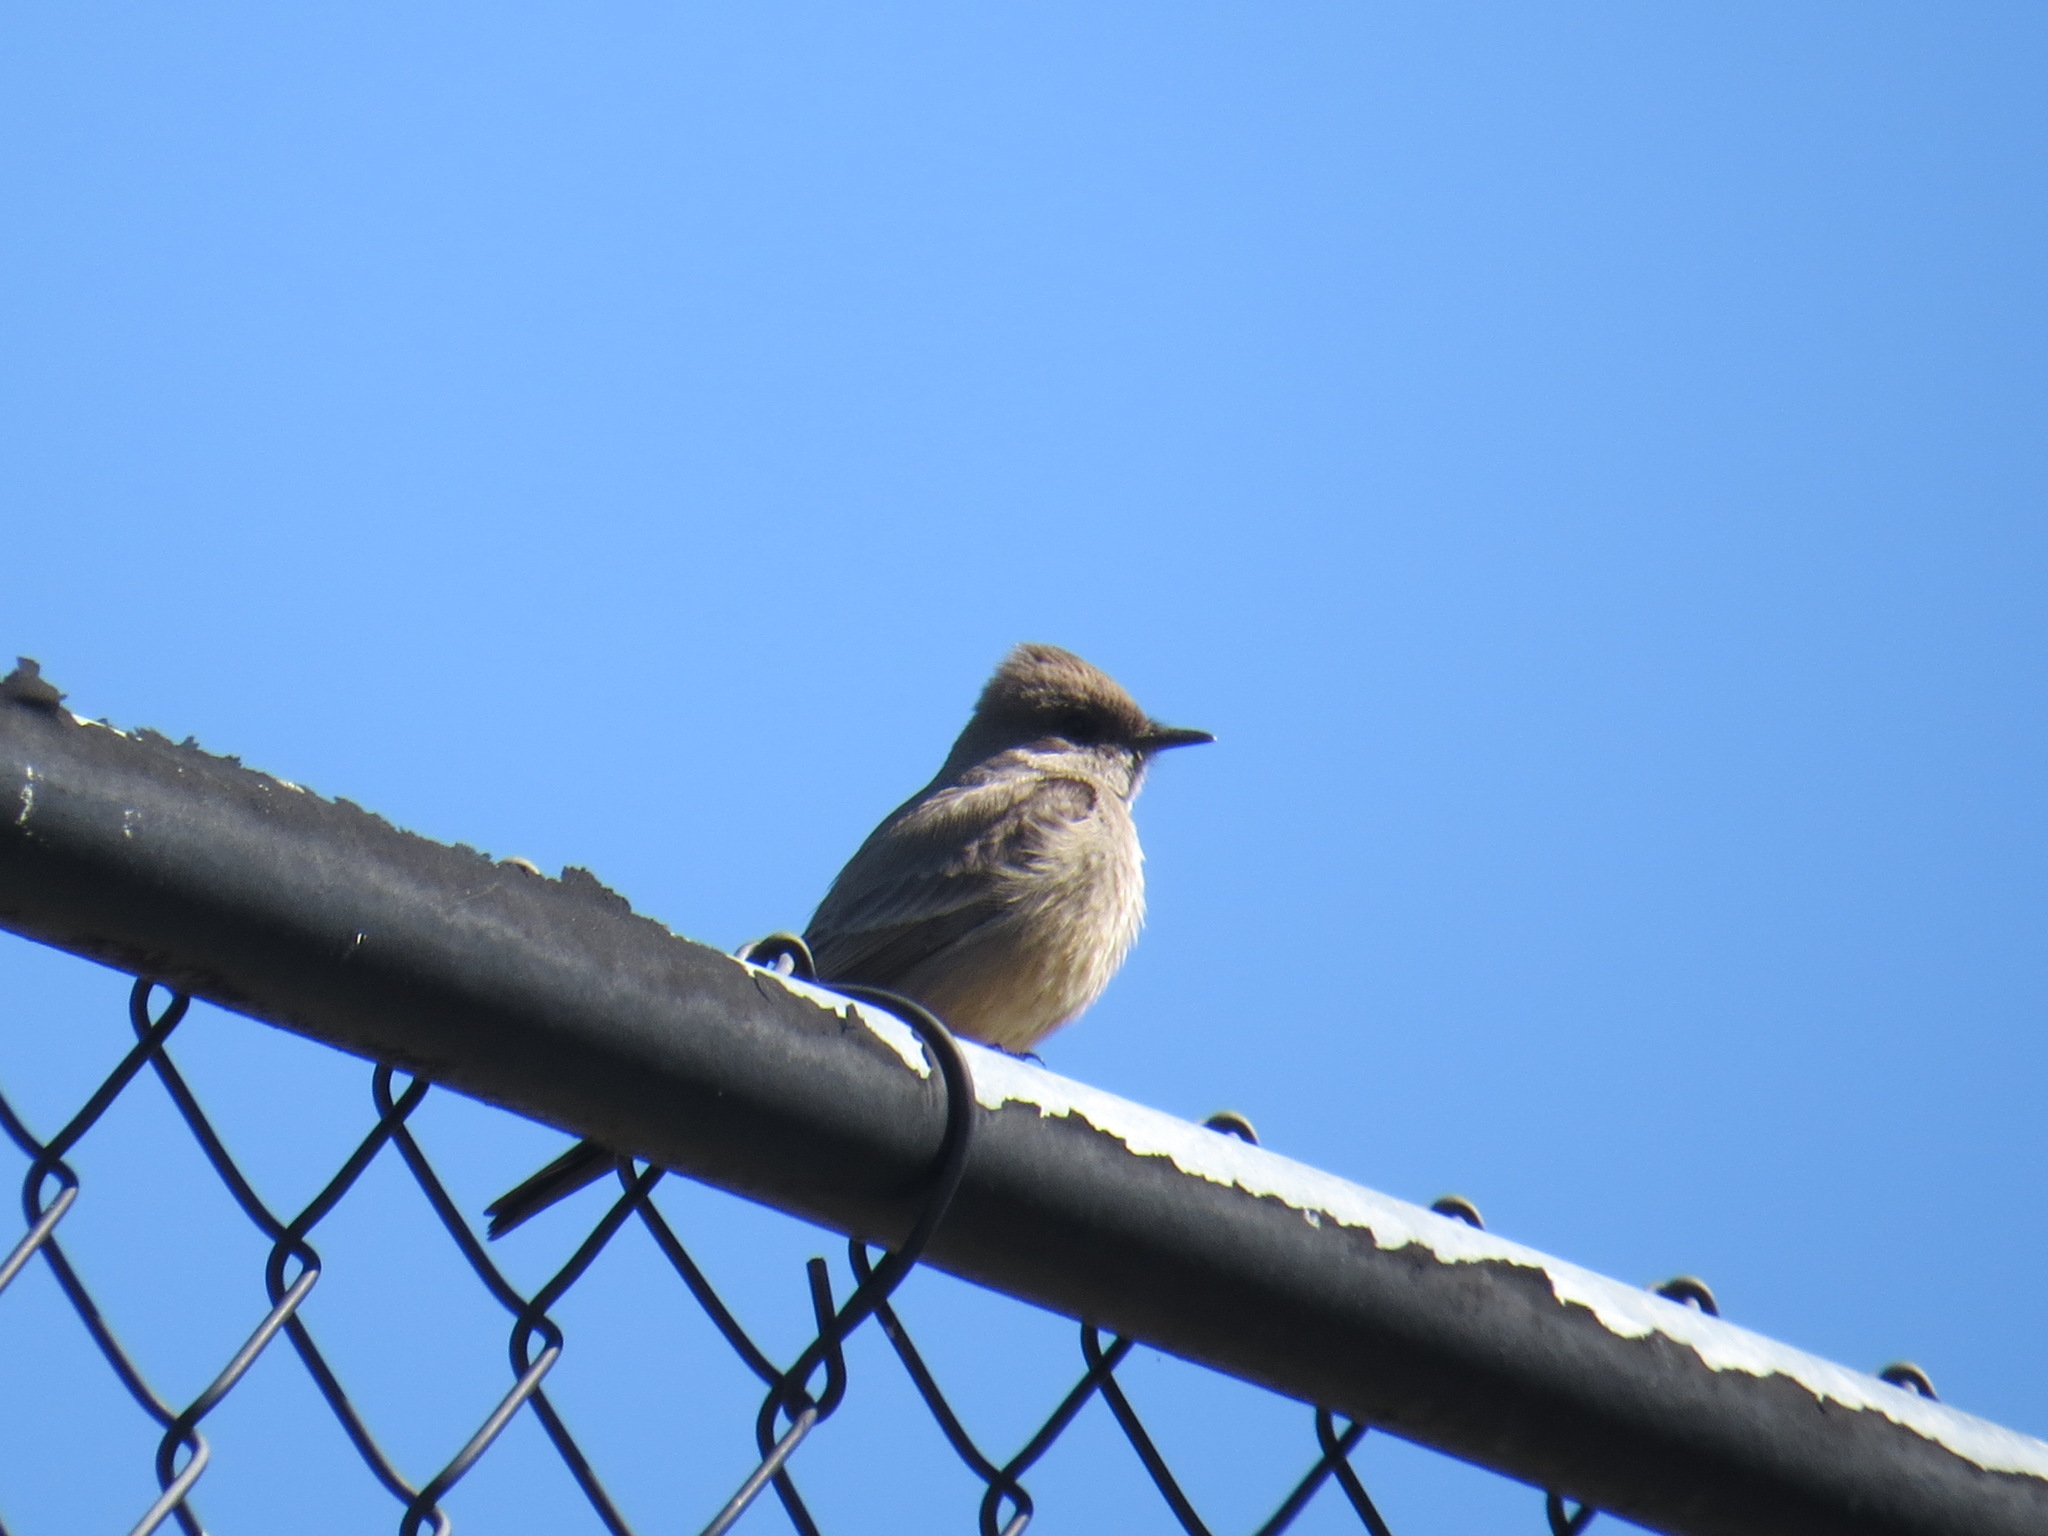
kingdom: Animalia
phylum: Chordata
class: Aves
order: Passeriformes
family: Tyrannidae
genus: Sayornis
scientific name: Sayornis saya
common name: Say's phoebe
